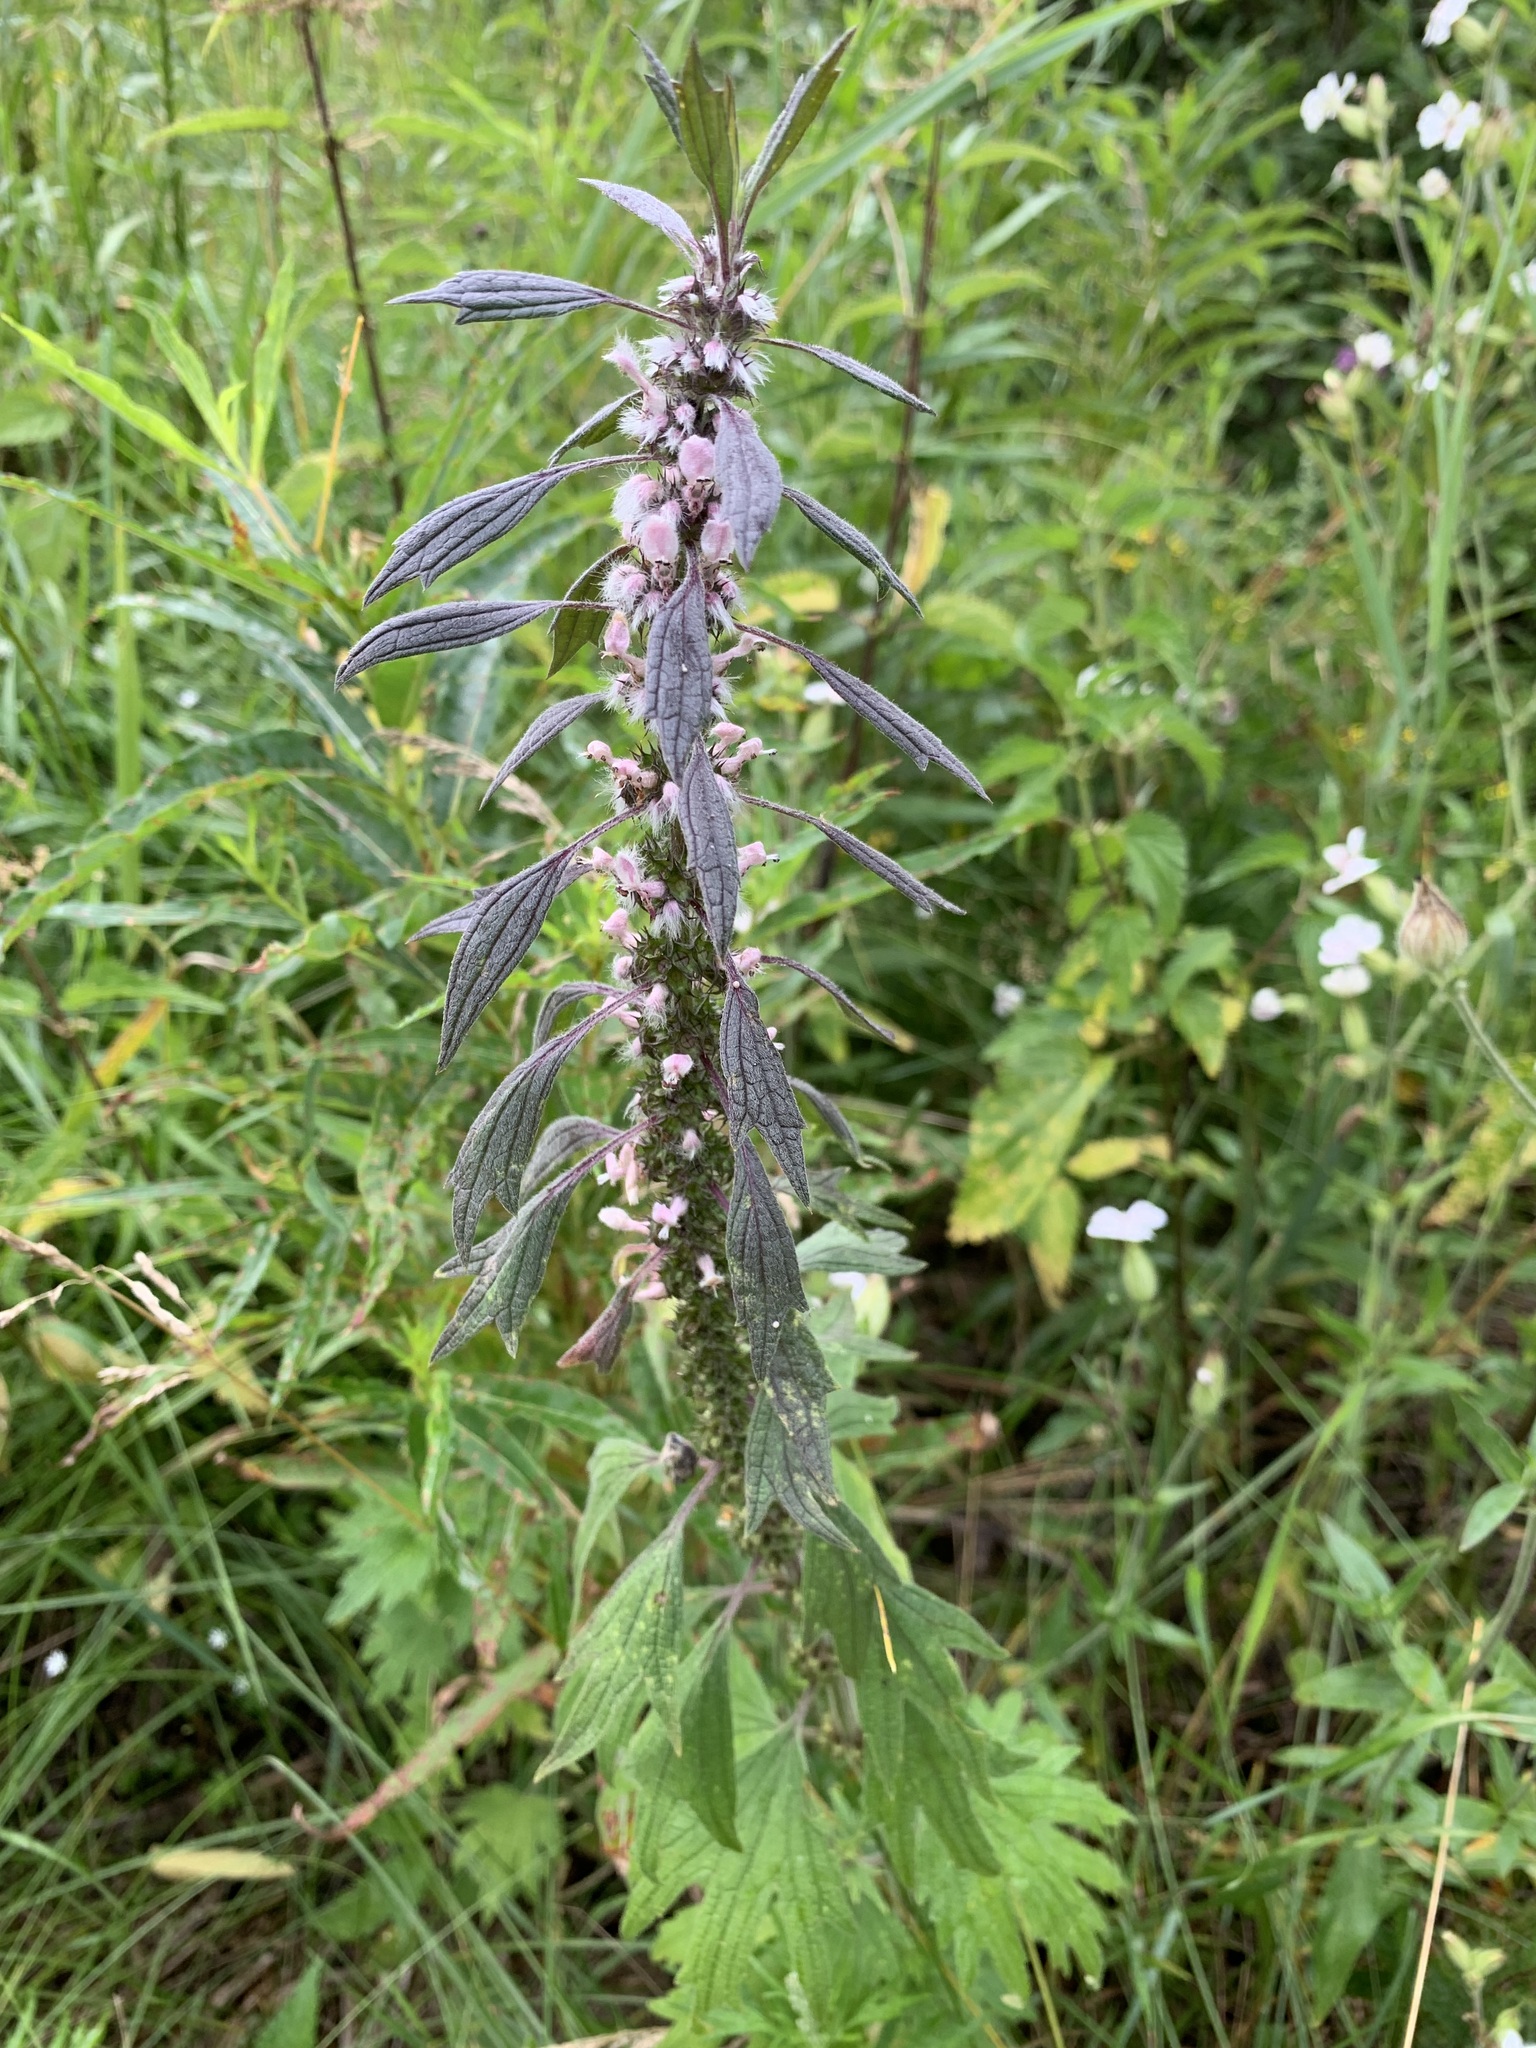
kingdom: Plantae
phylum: Tracheophyta
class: Magnoliopsida
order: Lamiales
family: Lamiaceae
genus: Leonurus
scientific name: Leonurus quinquelobatus
